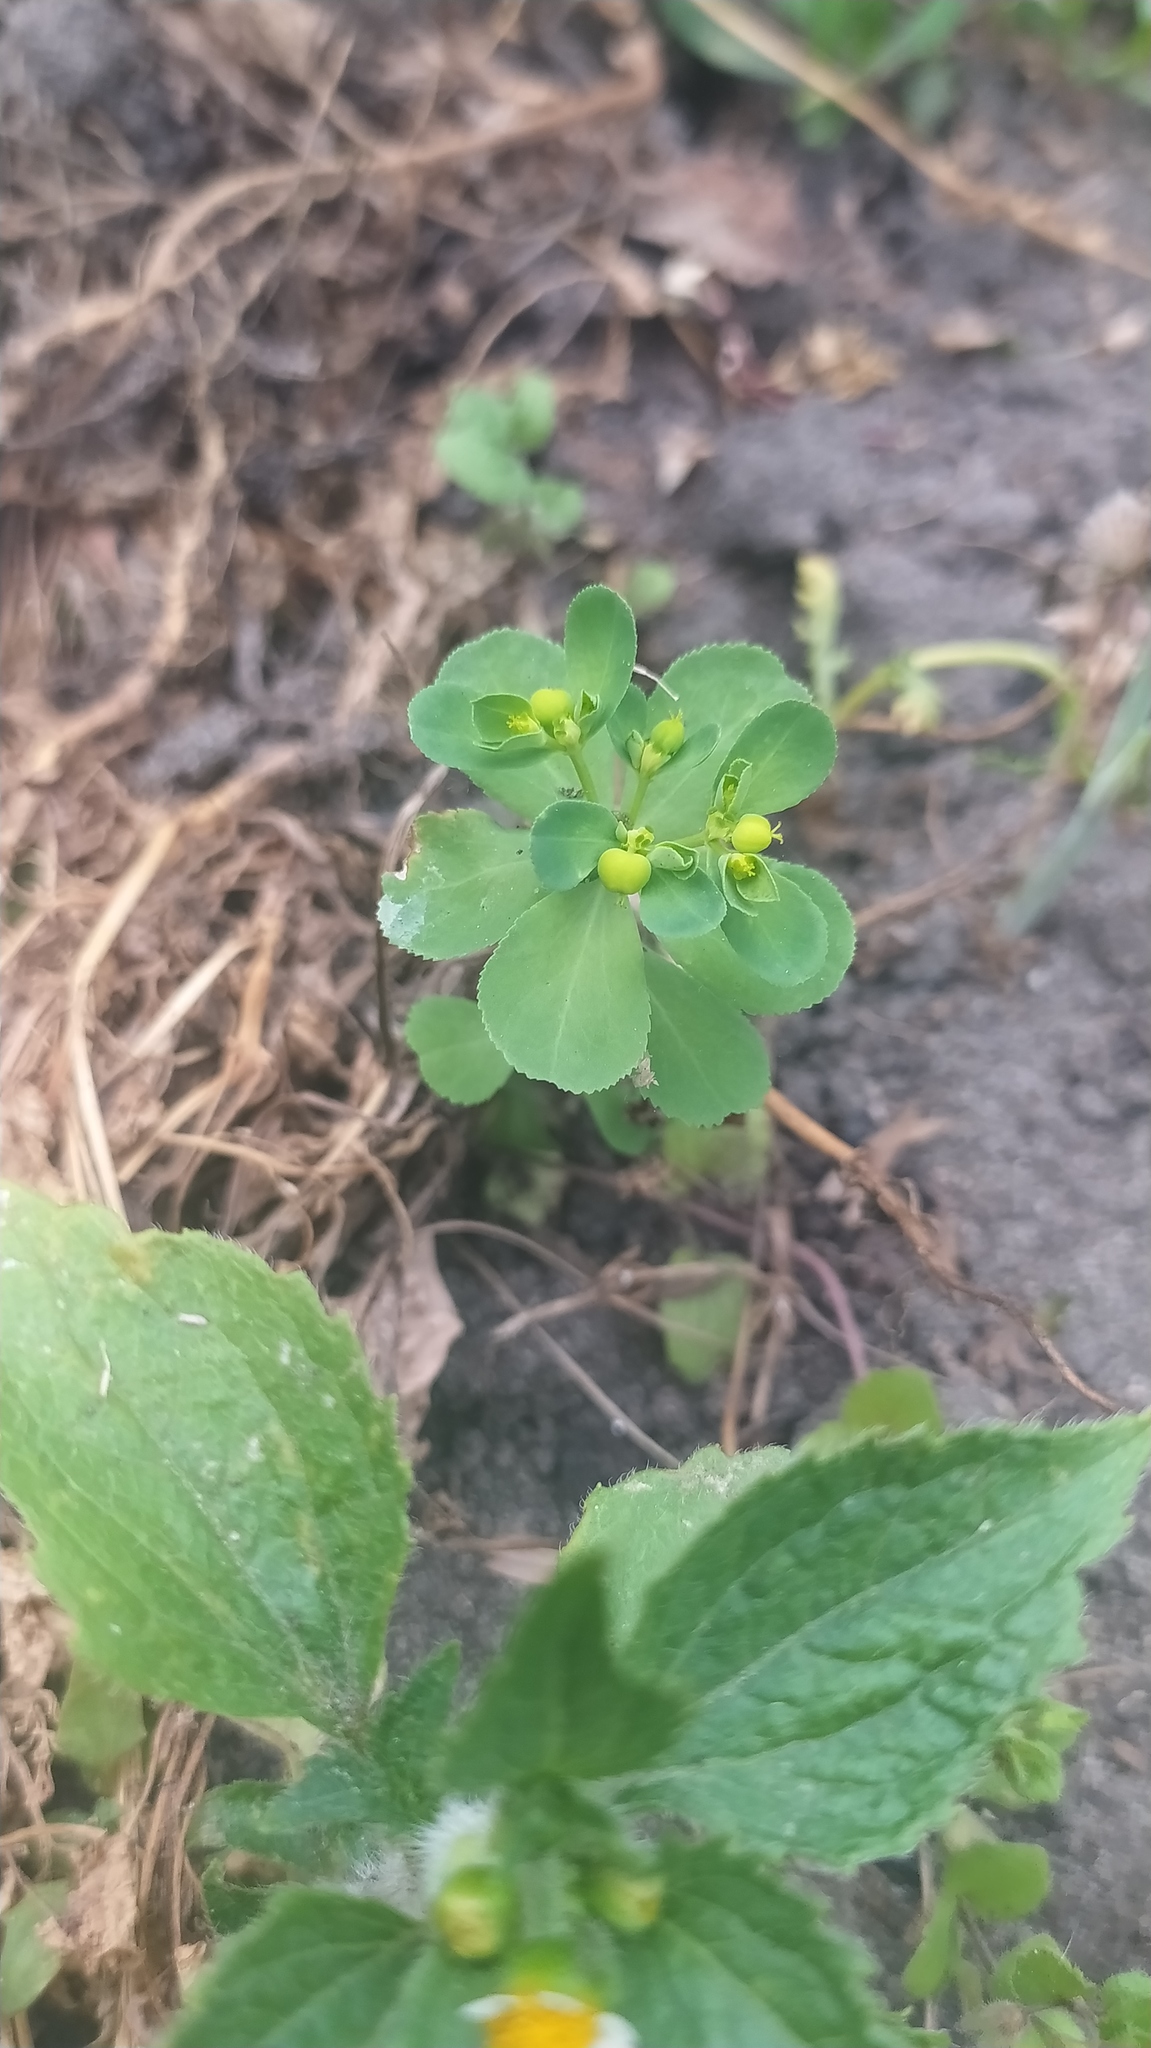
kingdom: Plantae
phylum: Tracheophyta
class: Magnoliopsida
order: Malpighiales
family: Euphorbiaceae
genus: Euphorbia
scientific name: Euphorbia helioscopia
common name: Sun spurge
